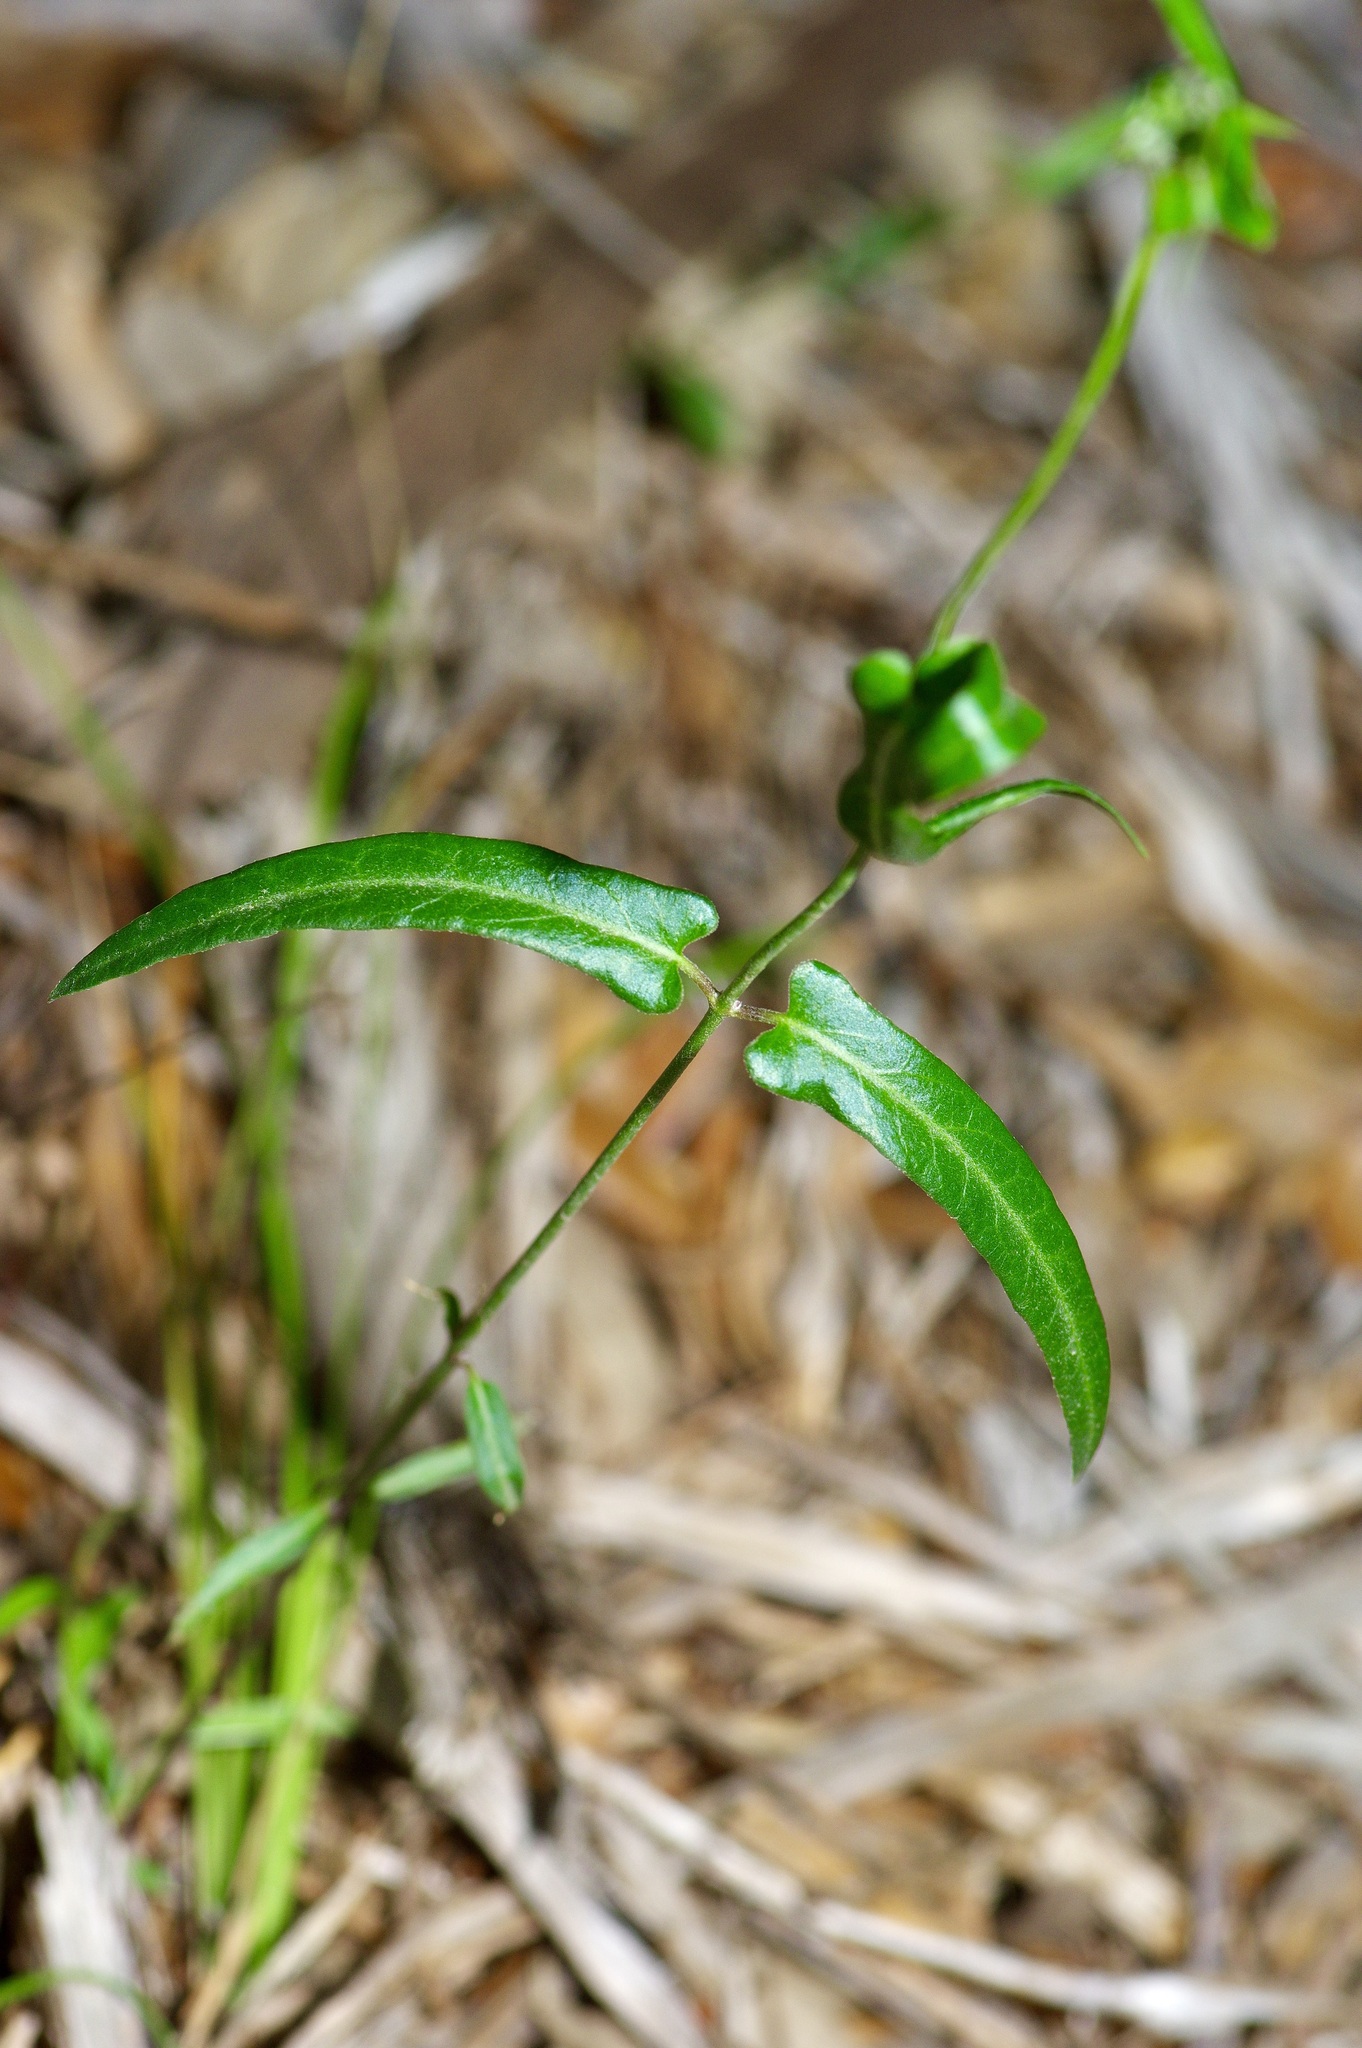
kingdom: Plantae
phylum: Tracheophyta
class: Magnoliopsida
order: Gentianales
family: Apocynaceae
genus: Funastrum
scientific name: Funastrum crispum
